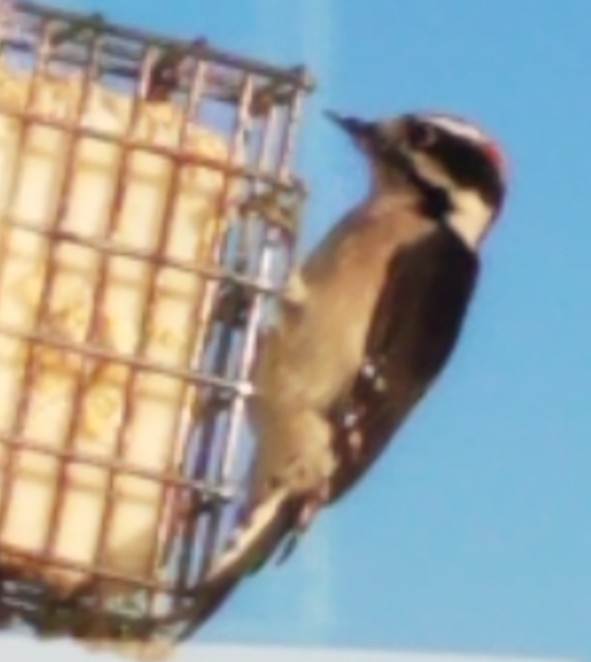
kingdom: Animalia
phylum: Chordata
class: Aves
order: Piciformes
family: Picidae
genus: Dryobates
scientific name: Dryobates pubescens
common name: Downy woodpecker
